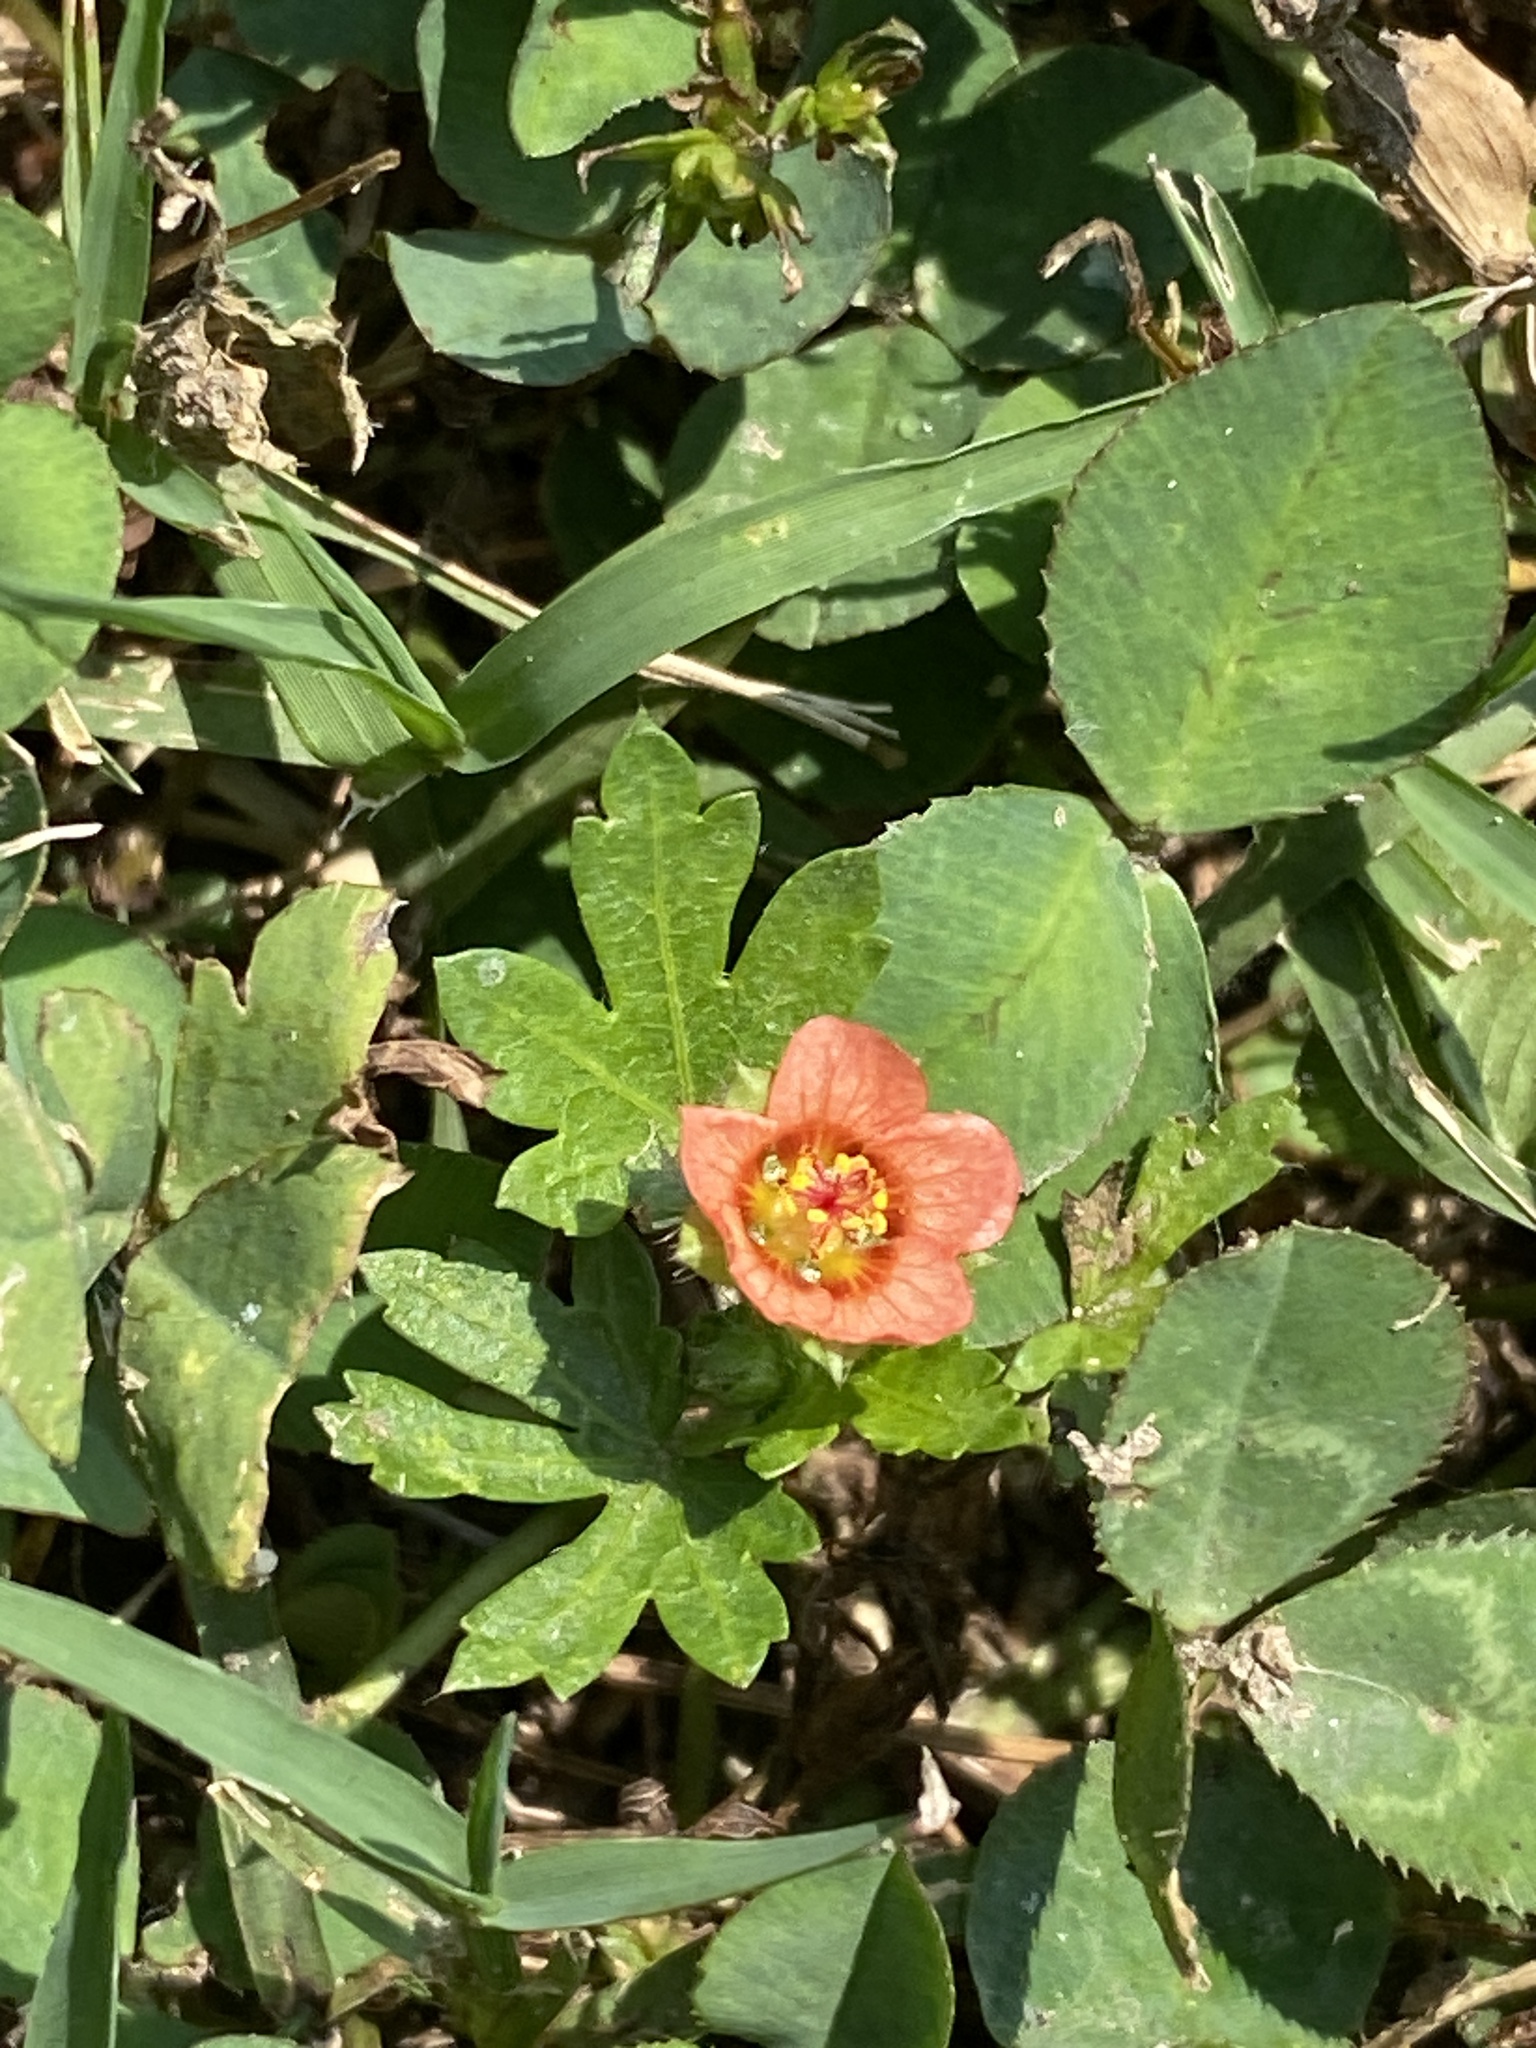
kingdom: Plantae
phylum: Tracheophyta
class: Magnoliopsida
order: Malvales
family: Malvaceae
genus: Modiola
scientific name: Modiola caroliniana
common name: Carolina bristlemallow
